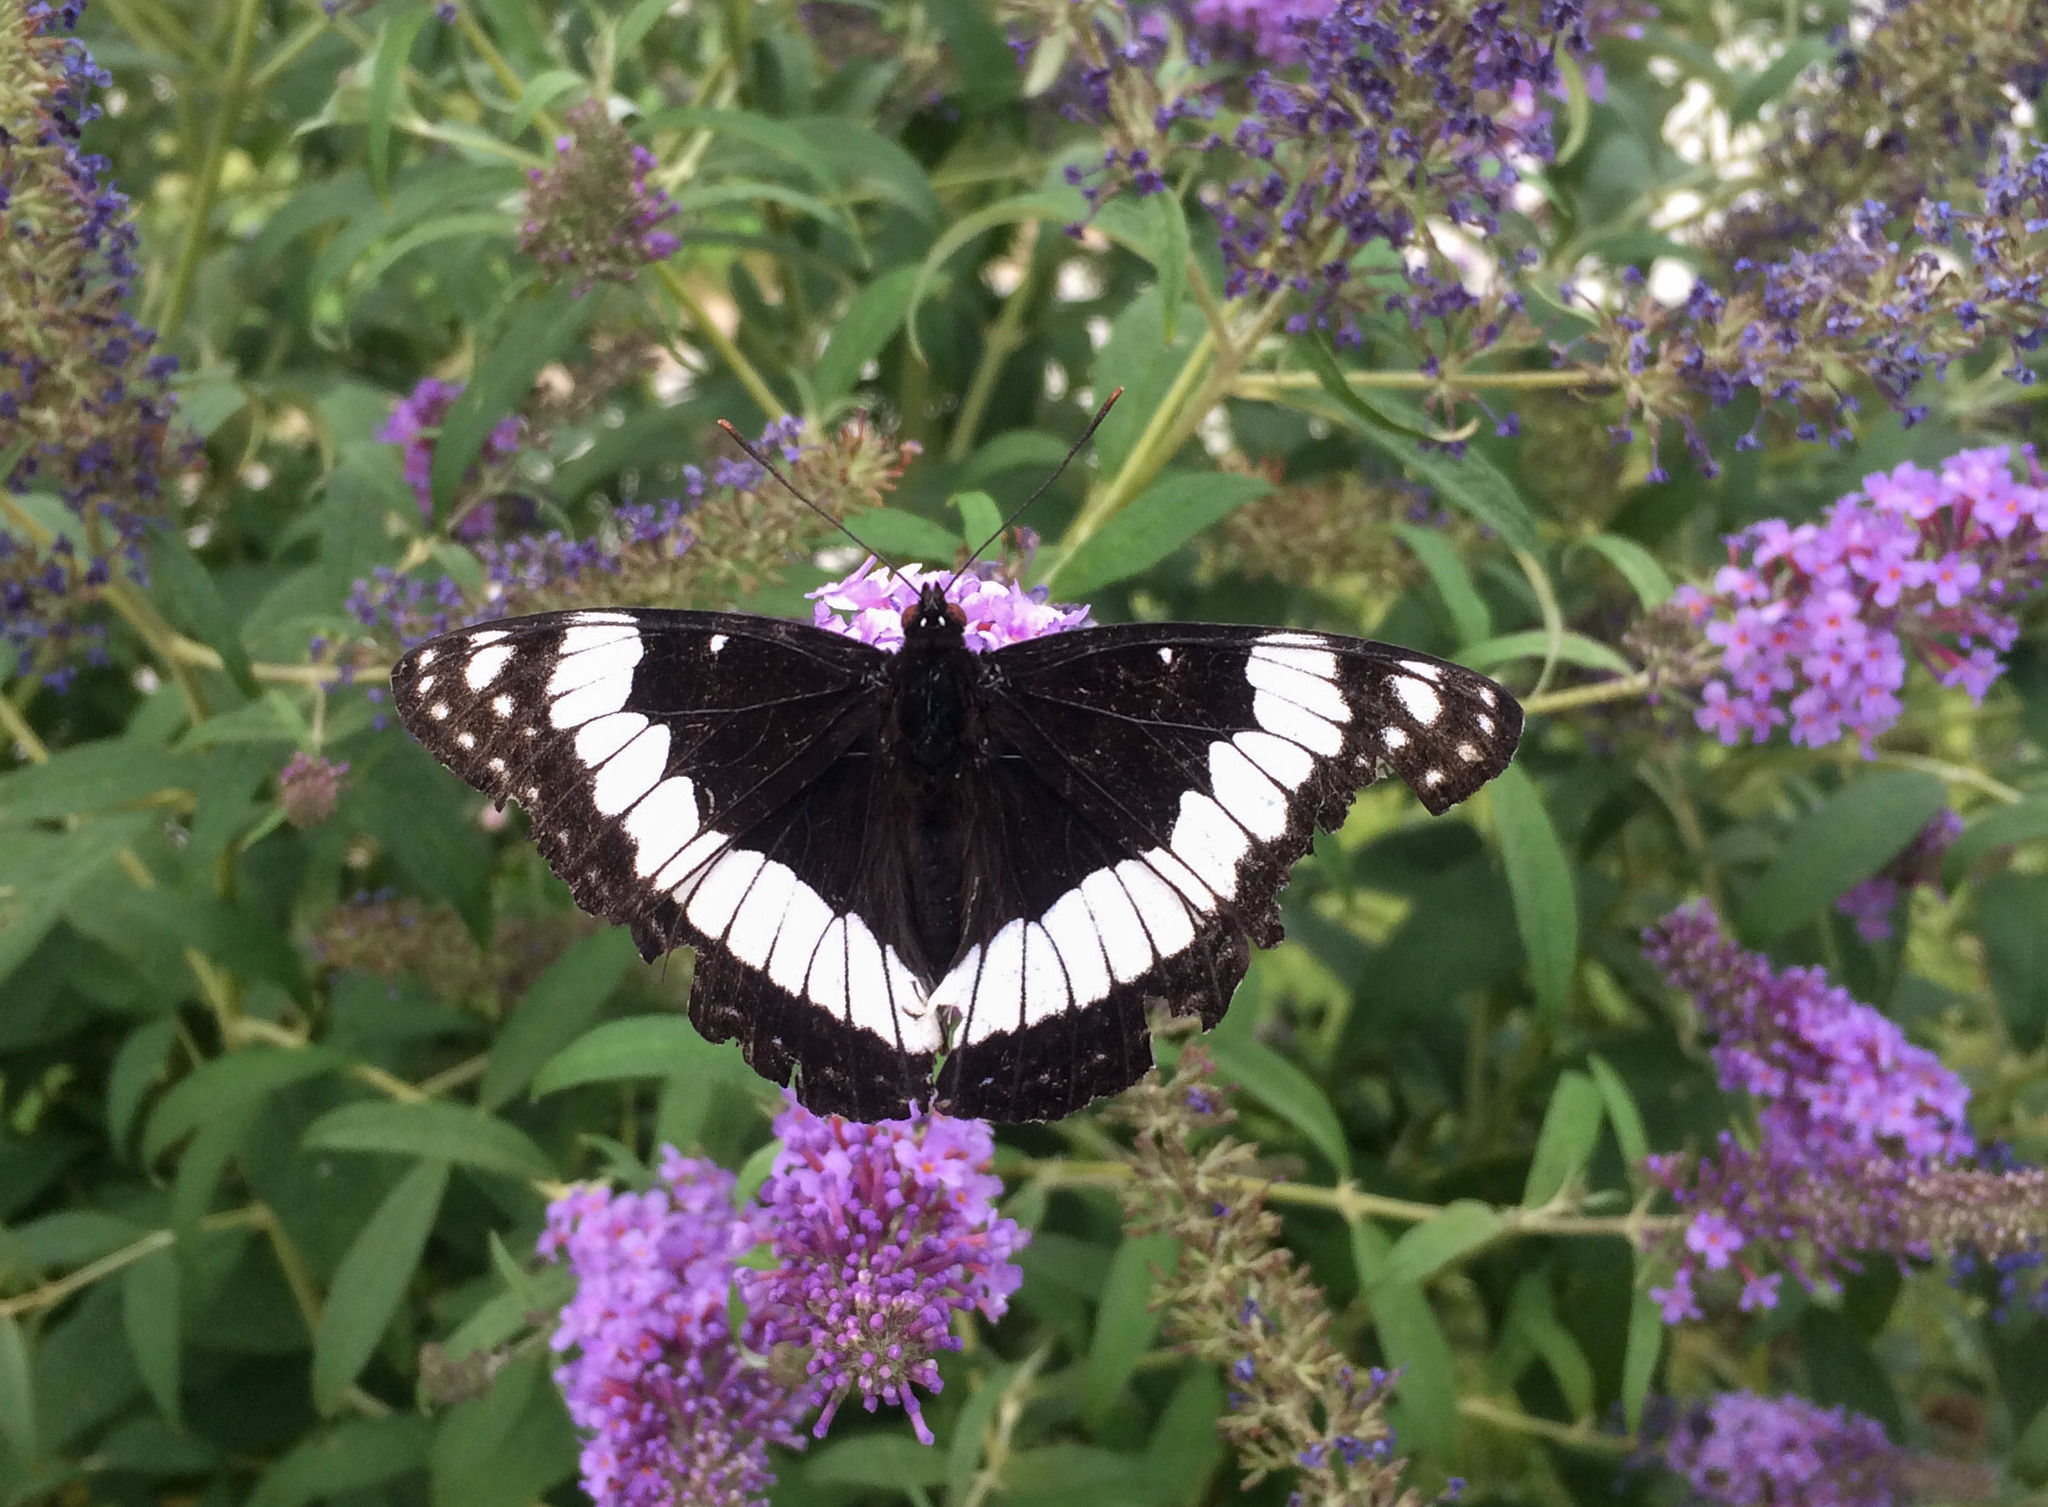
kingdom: Animalia
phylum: Arthropoda
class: Insecta
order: Lepidoptera
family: Nymphalidae
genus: Limenitis
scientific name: Limenitis weidemeyerii
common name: Weidemeyer's admiral
